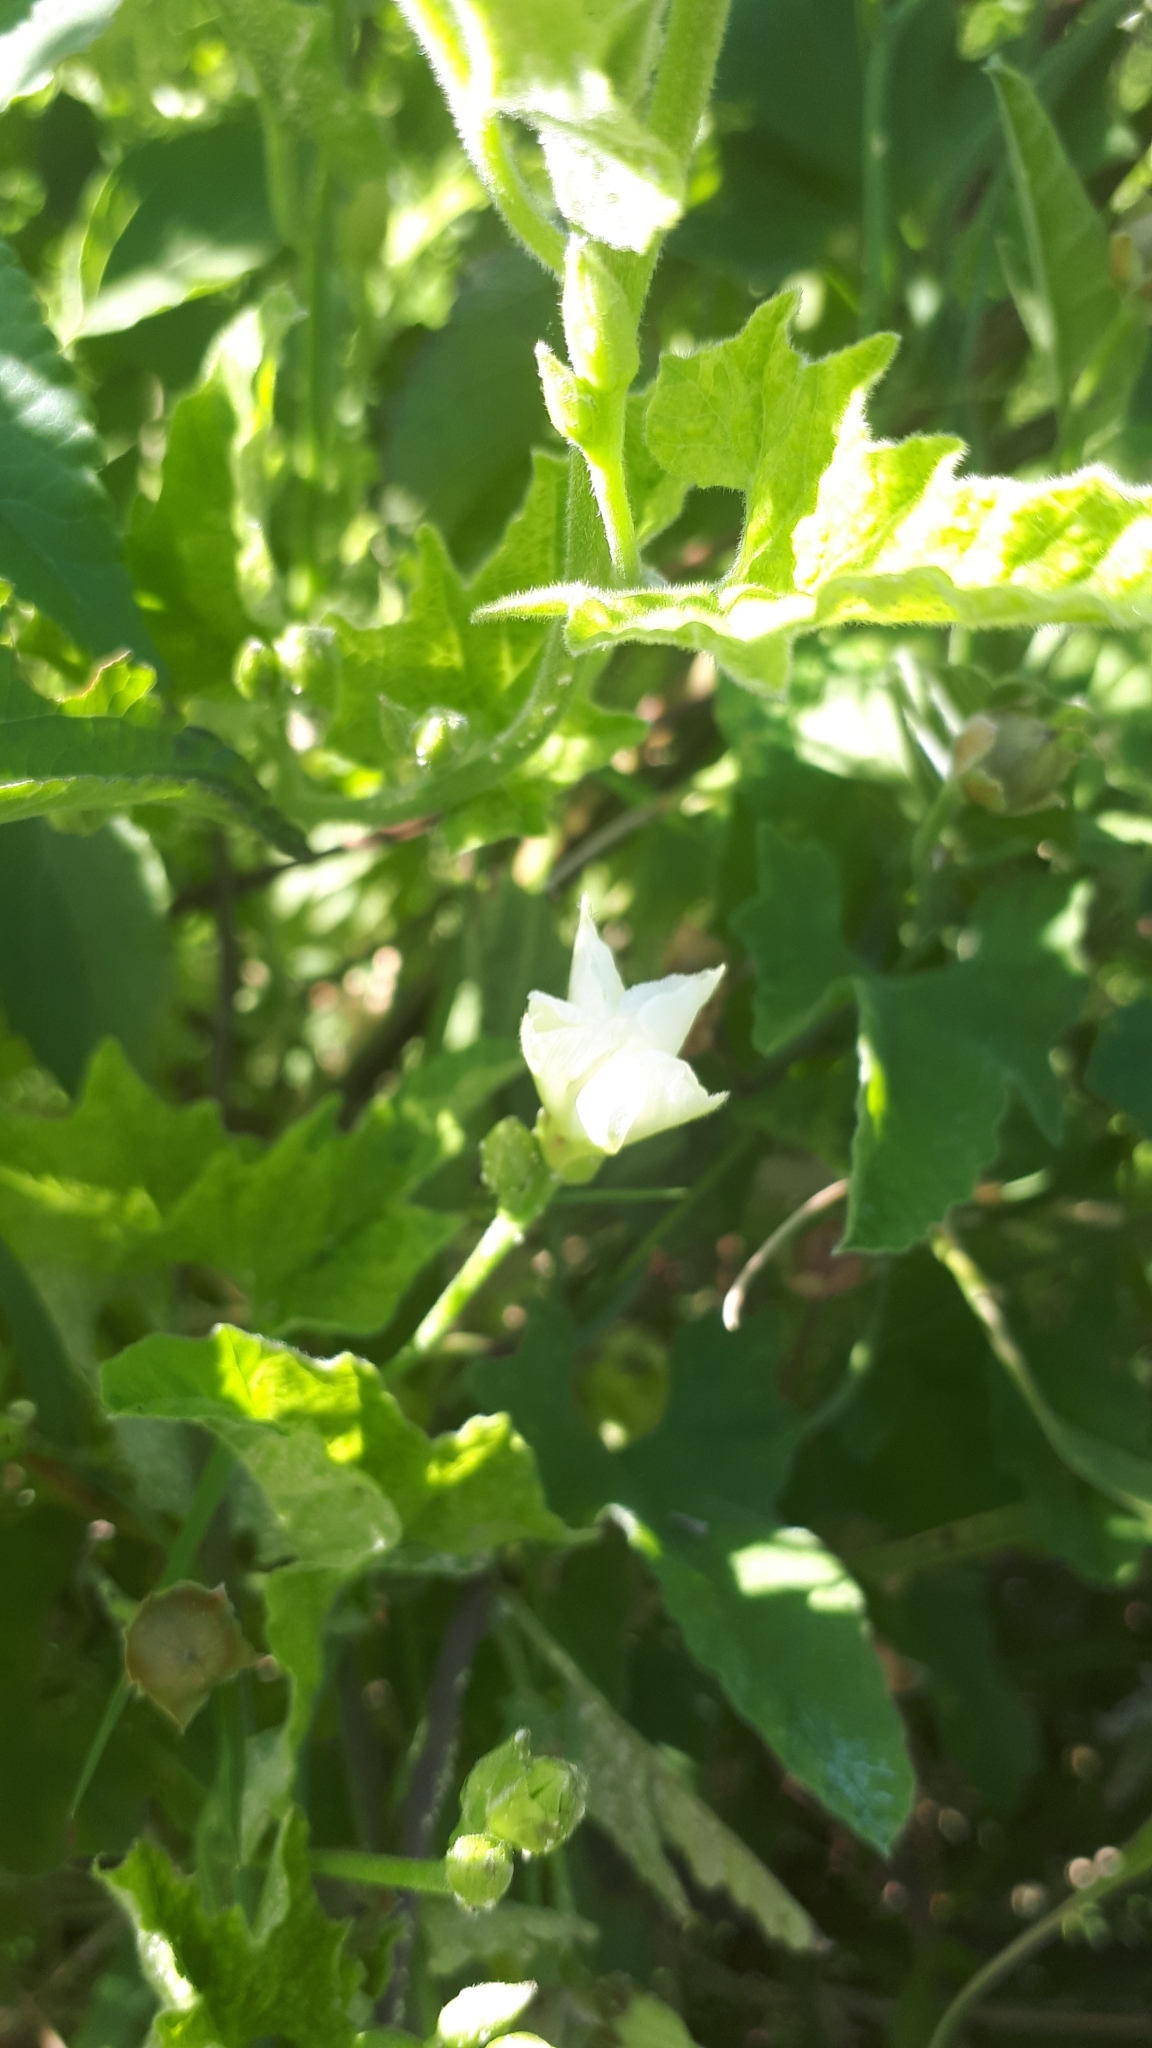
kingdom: Plantae
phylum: Tracheophyta
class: Magnoliopsida
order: Solanales
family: Convolvulaceae
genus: Convolvulus
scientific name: Convolvulus hermanniae
